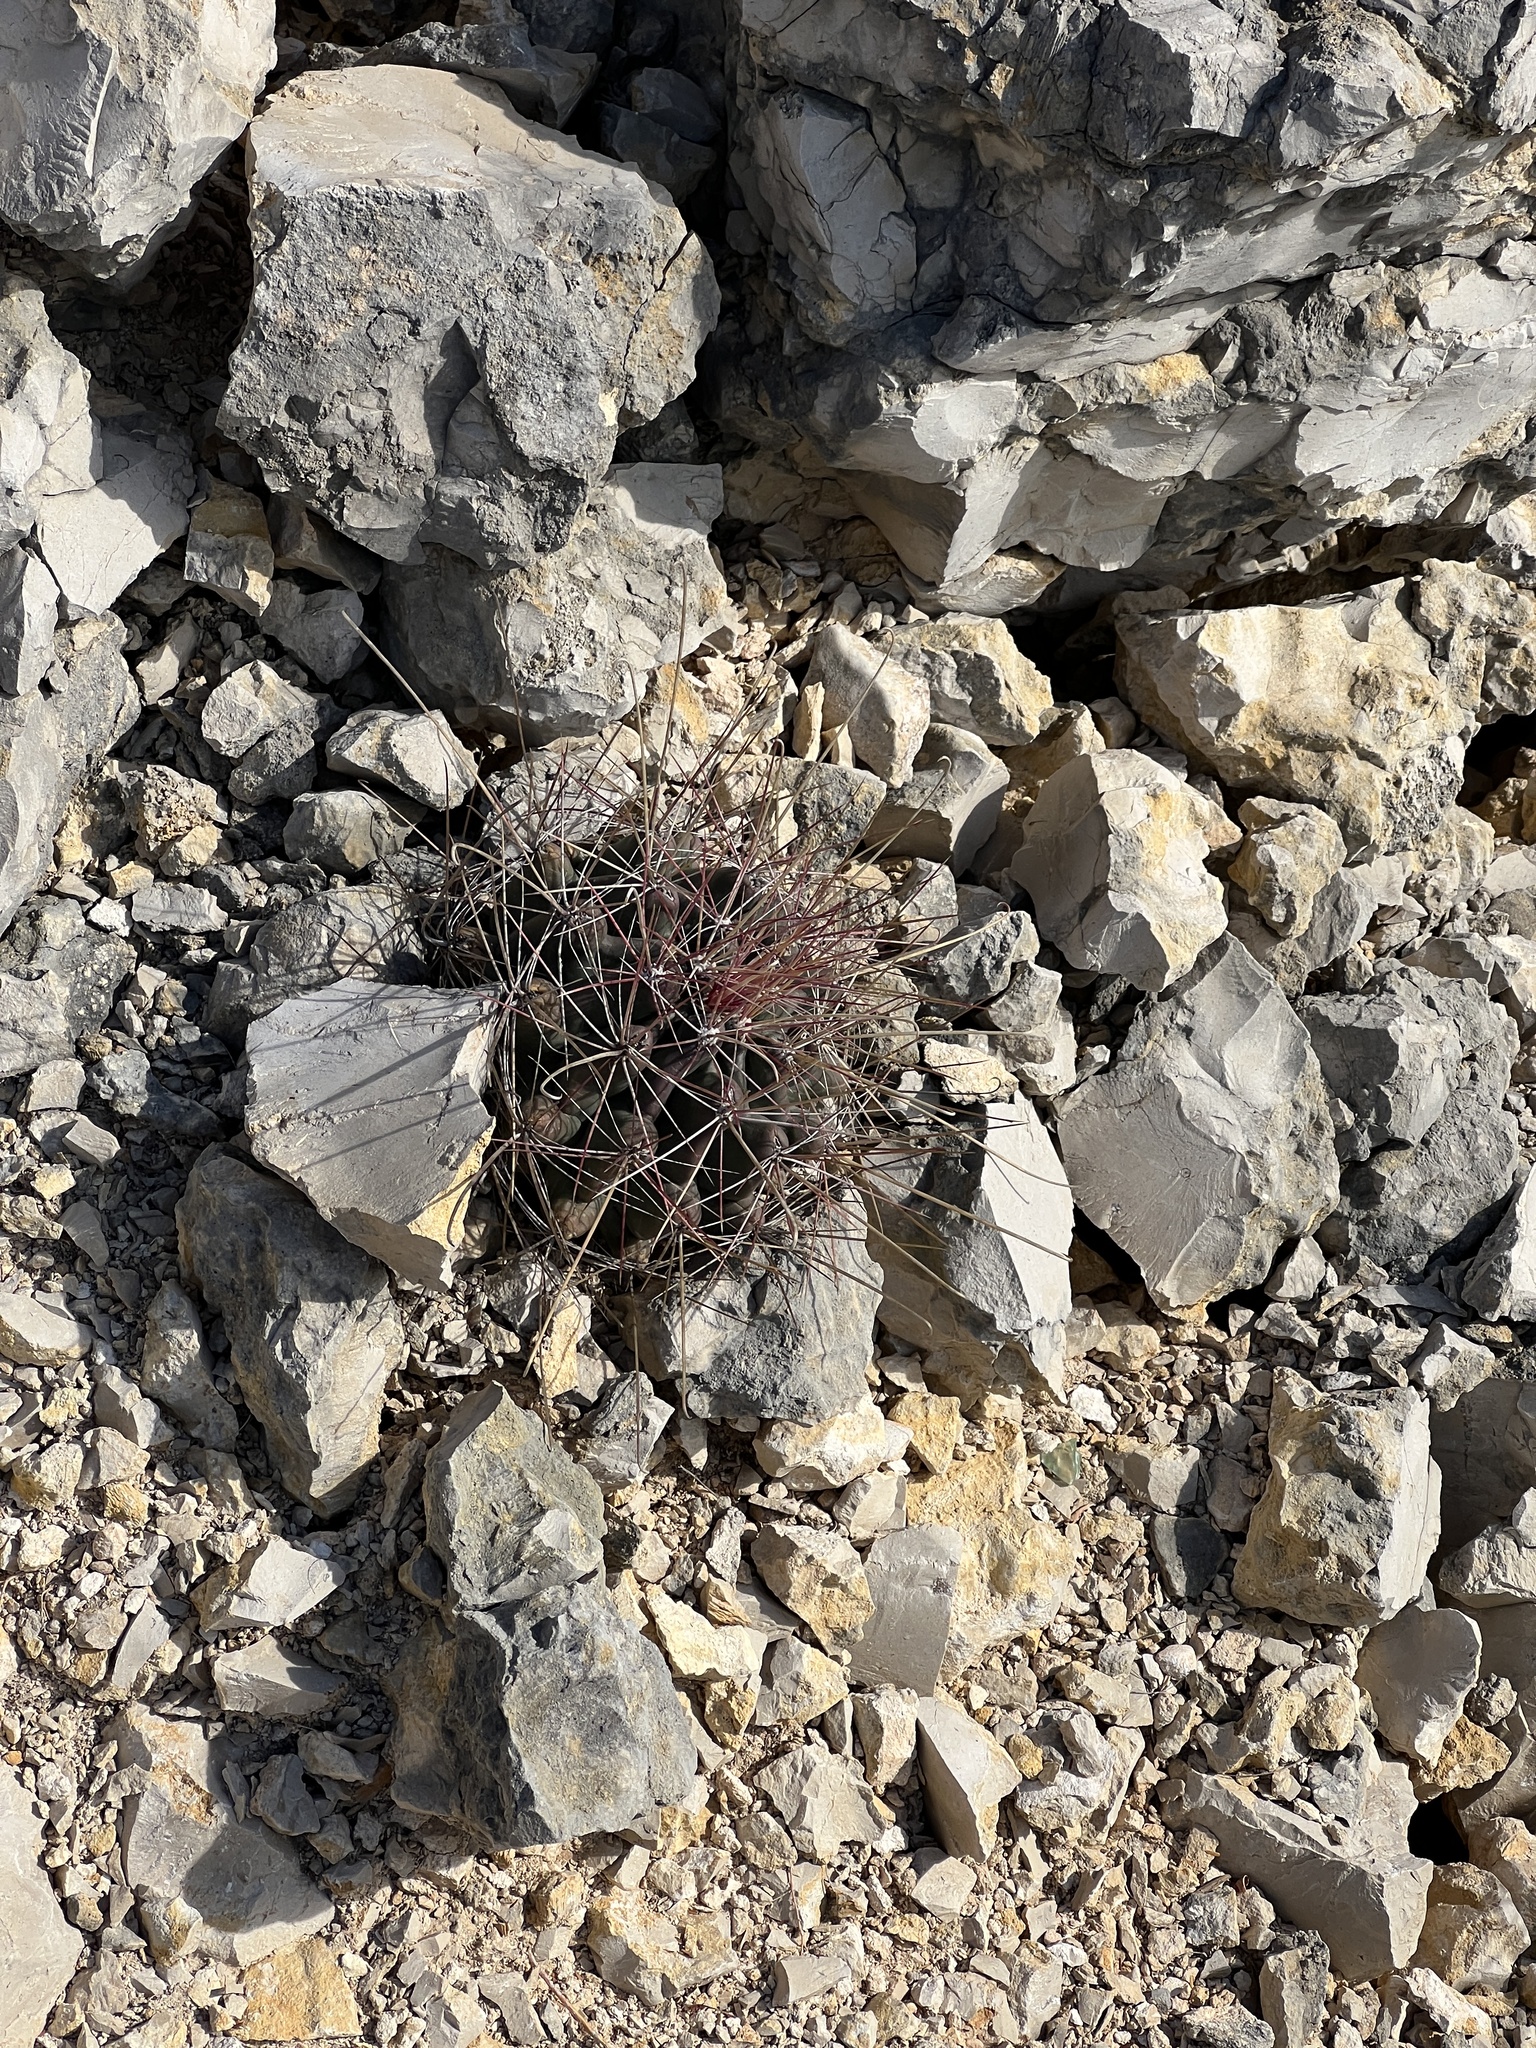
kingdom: Plantae
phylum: Tracheophyta
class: Magnoliopsida
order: Caryophyllales
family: Cactaceae
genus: Bisnaga
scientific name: Bisnaga hamatacantha
